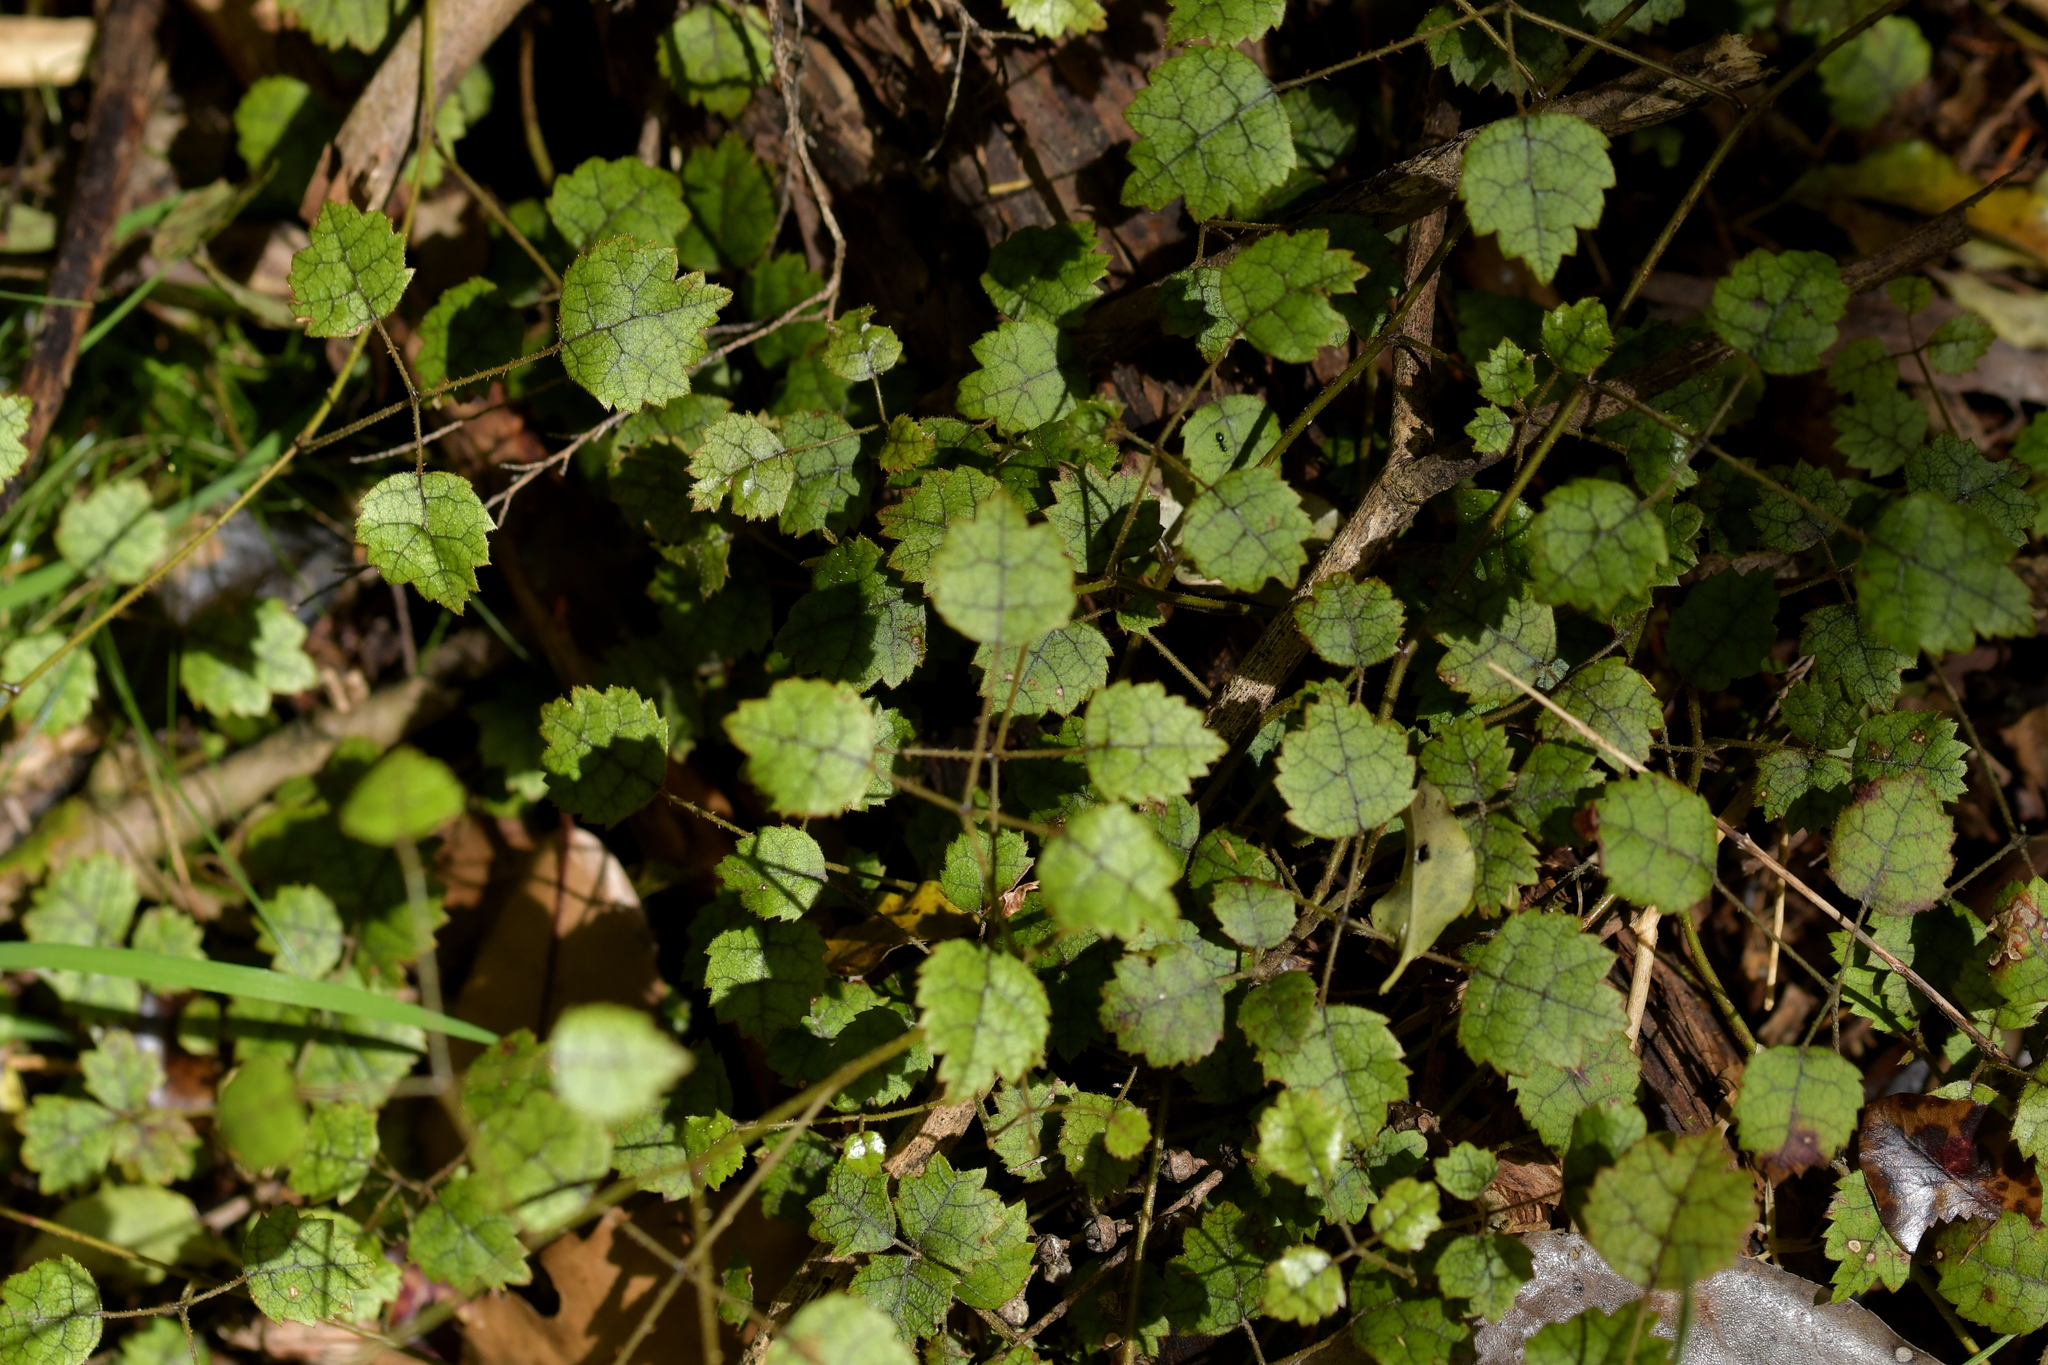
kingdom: Plantae
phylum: Tracheophyta
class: Magnoliopsida
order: Rosales
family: Rosaceae
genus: Rubus
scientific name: Rubus australis
